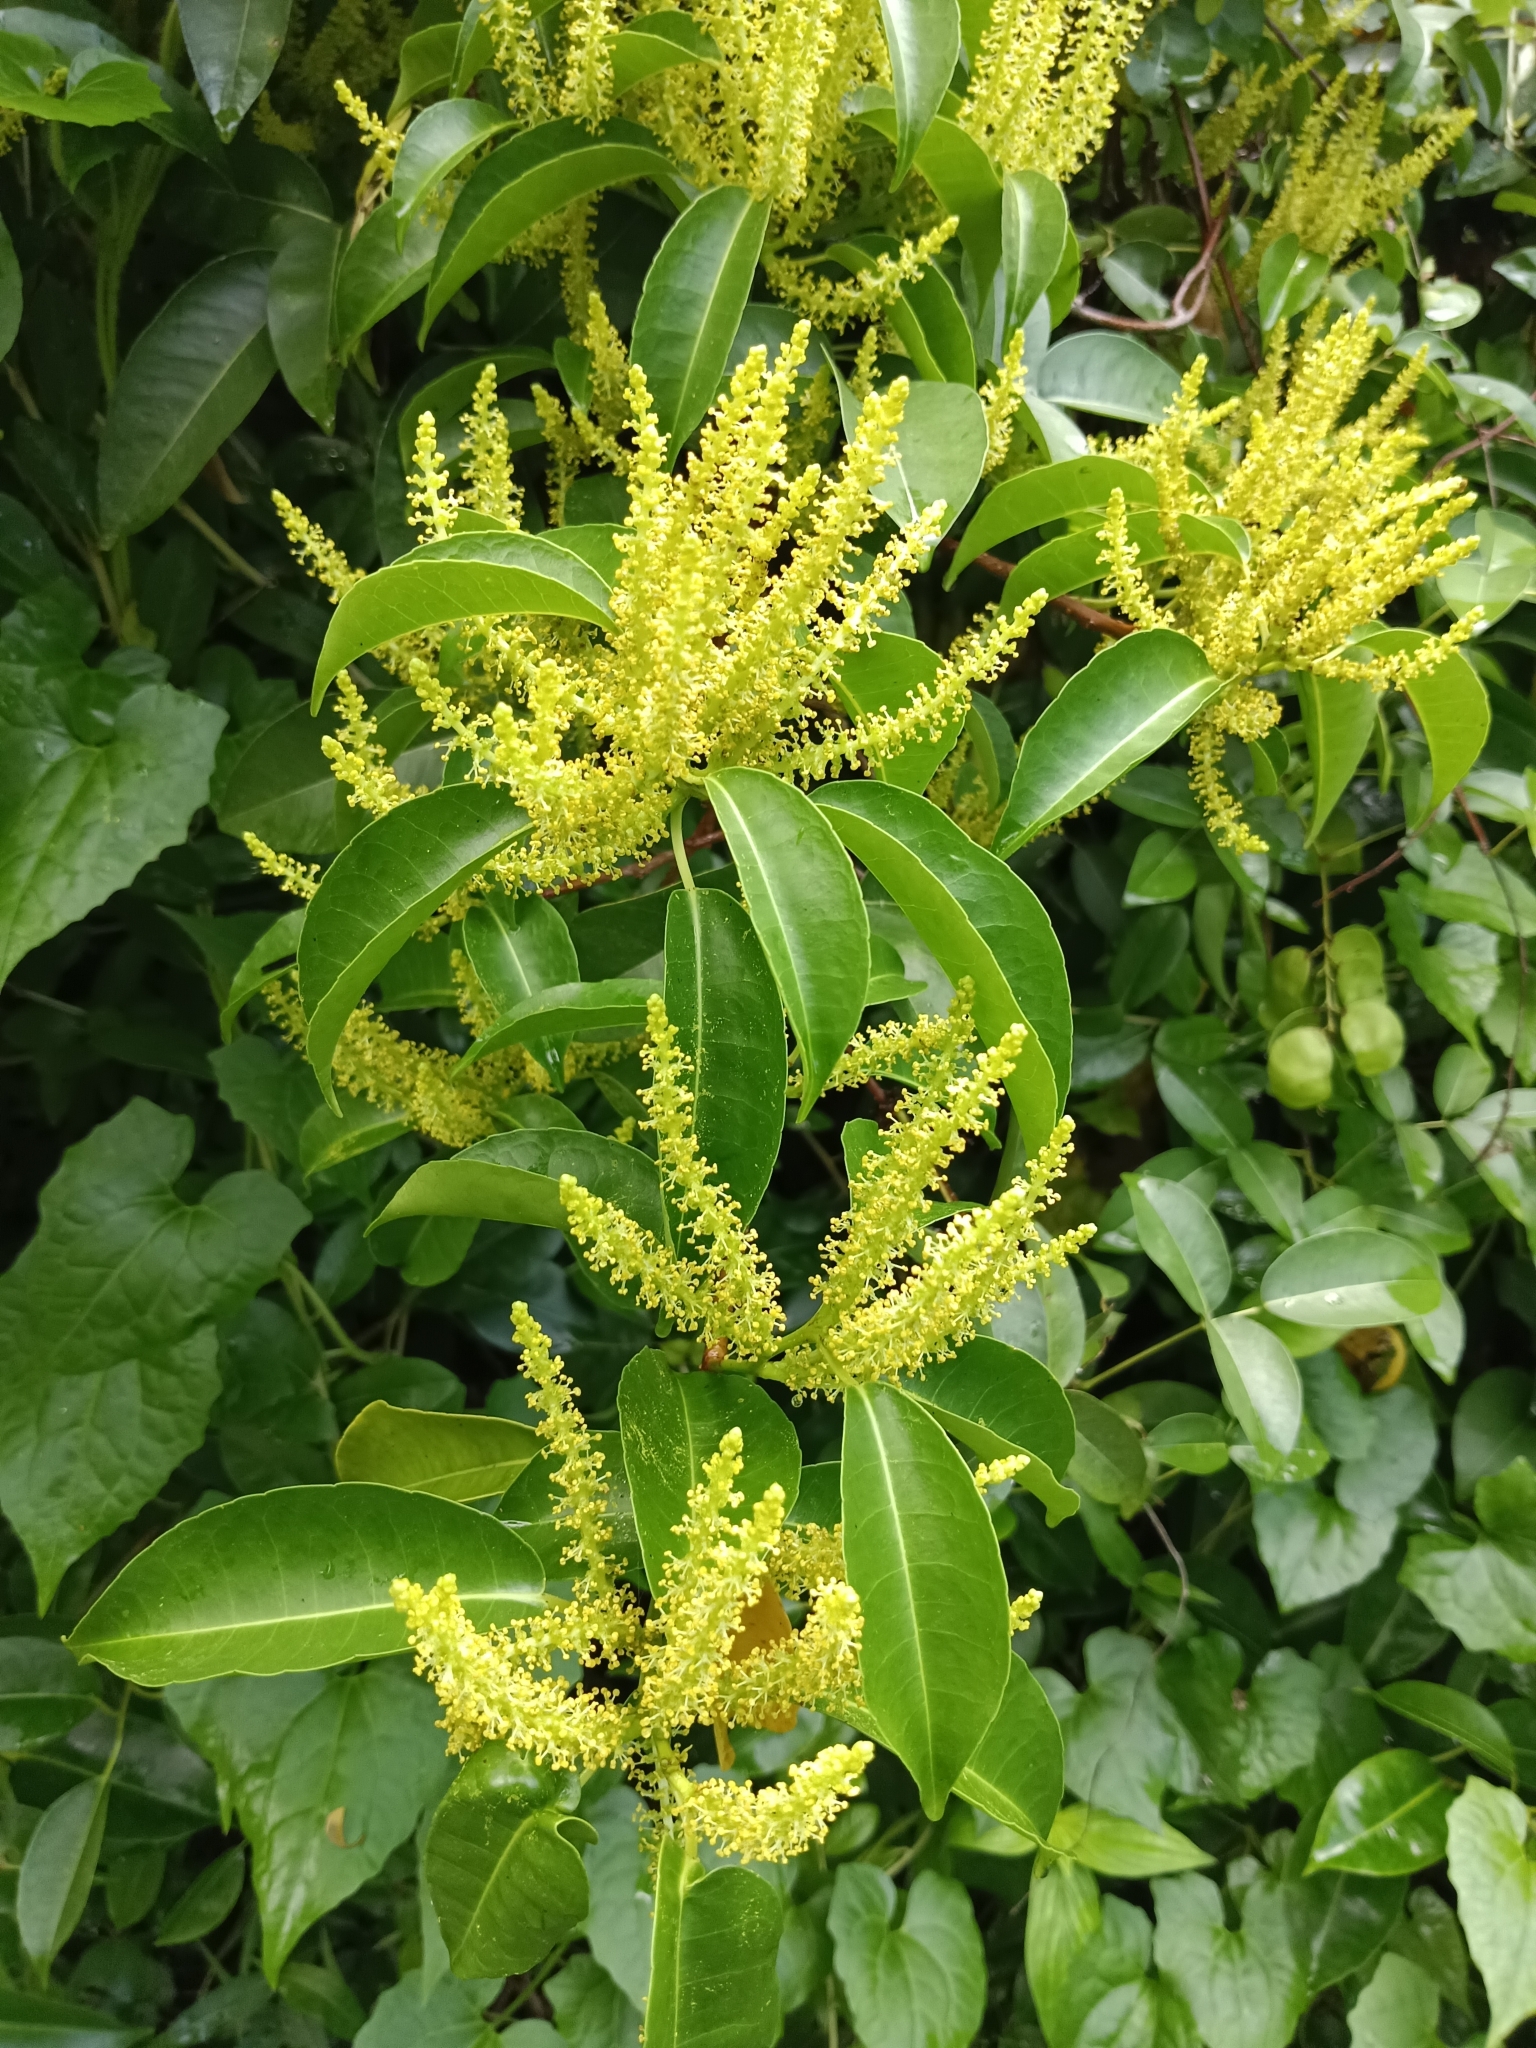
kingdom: Plantae
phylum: Tracheophyta
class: Magnoliopsida
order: Malpighiales
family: Euphorbiaceae
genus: Excoecaria
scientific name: Excoecaria agallocha
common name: River poisontree
